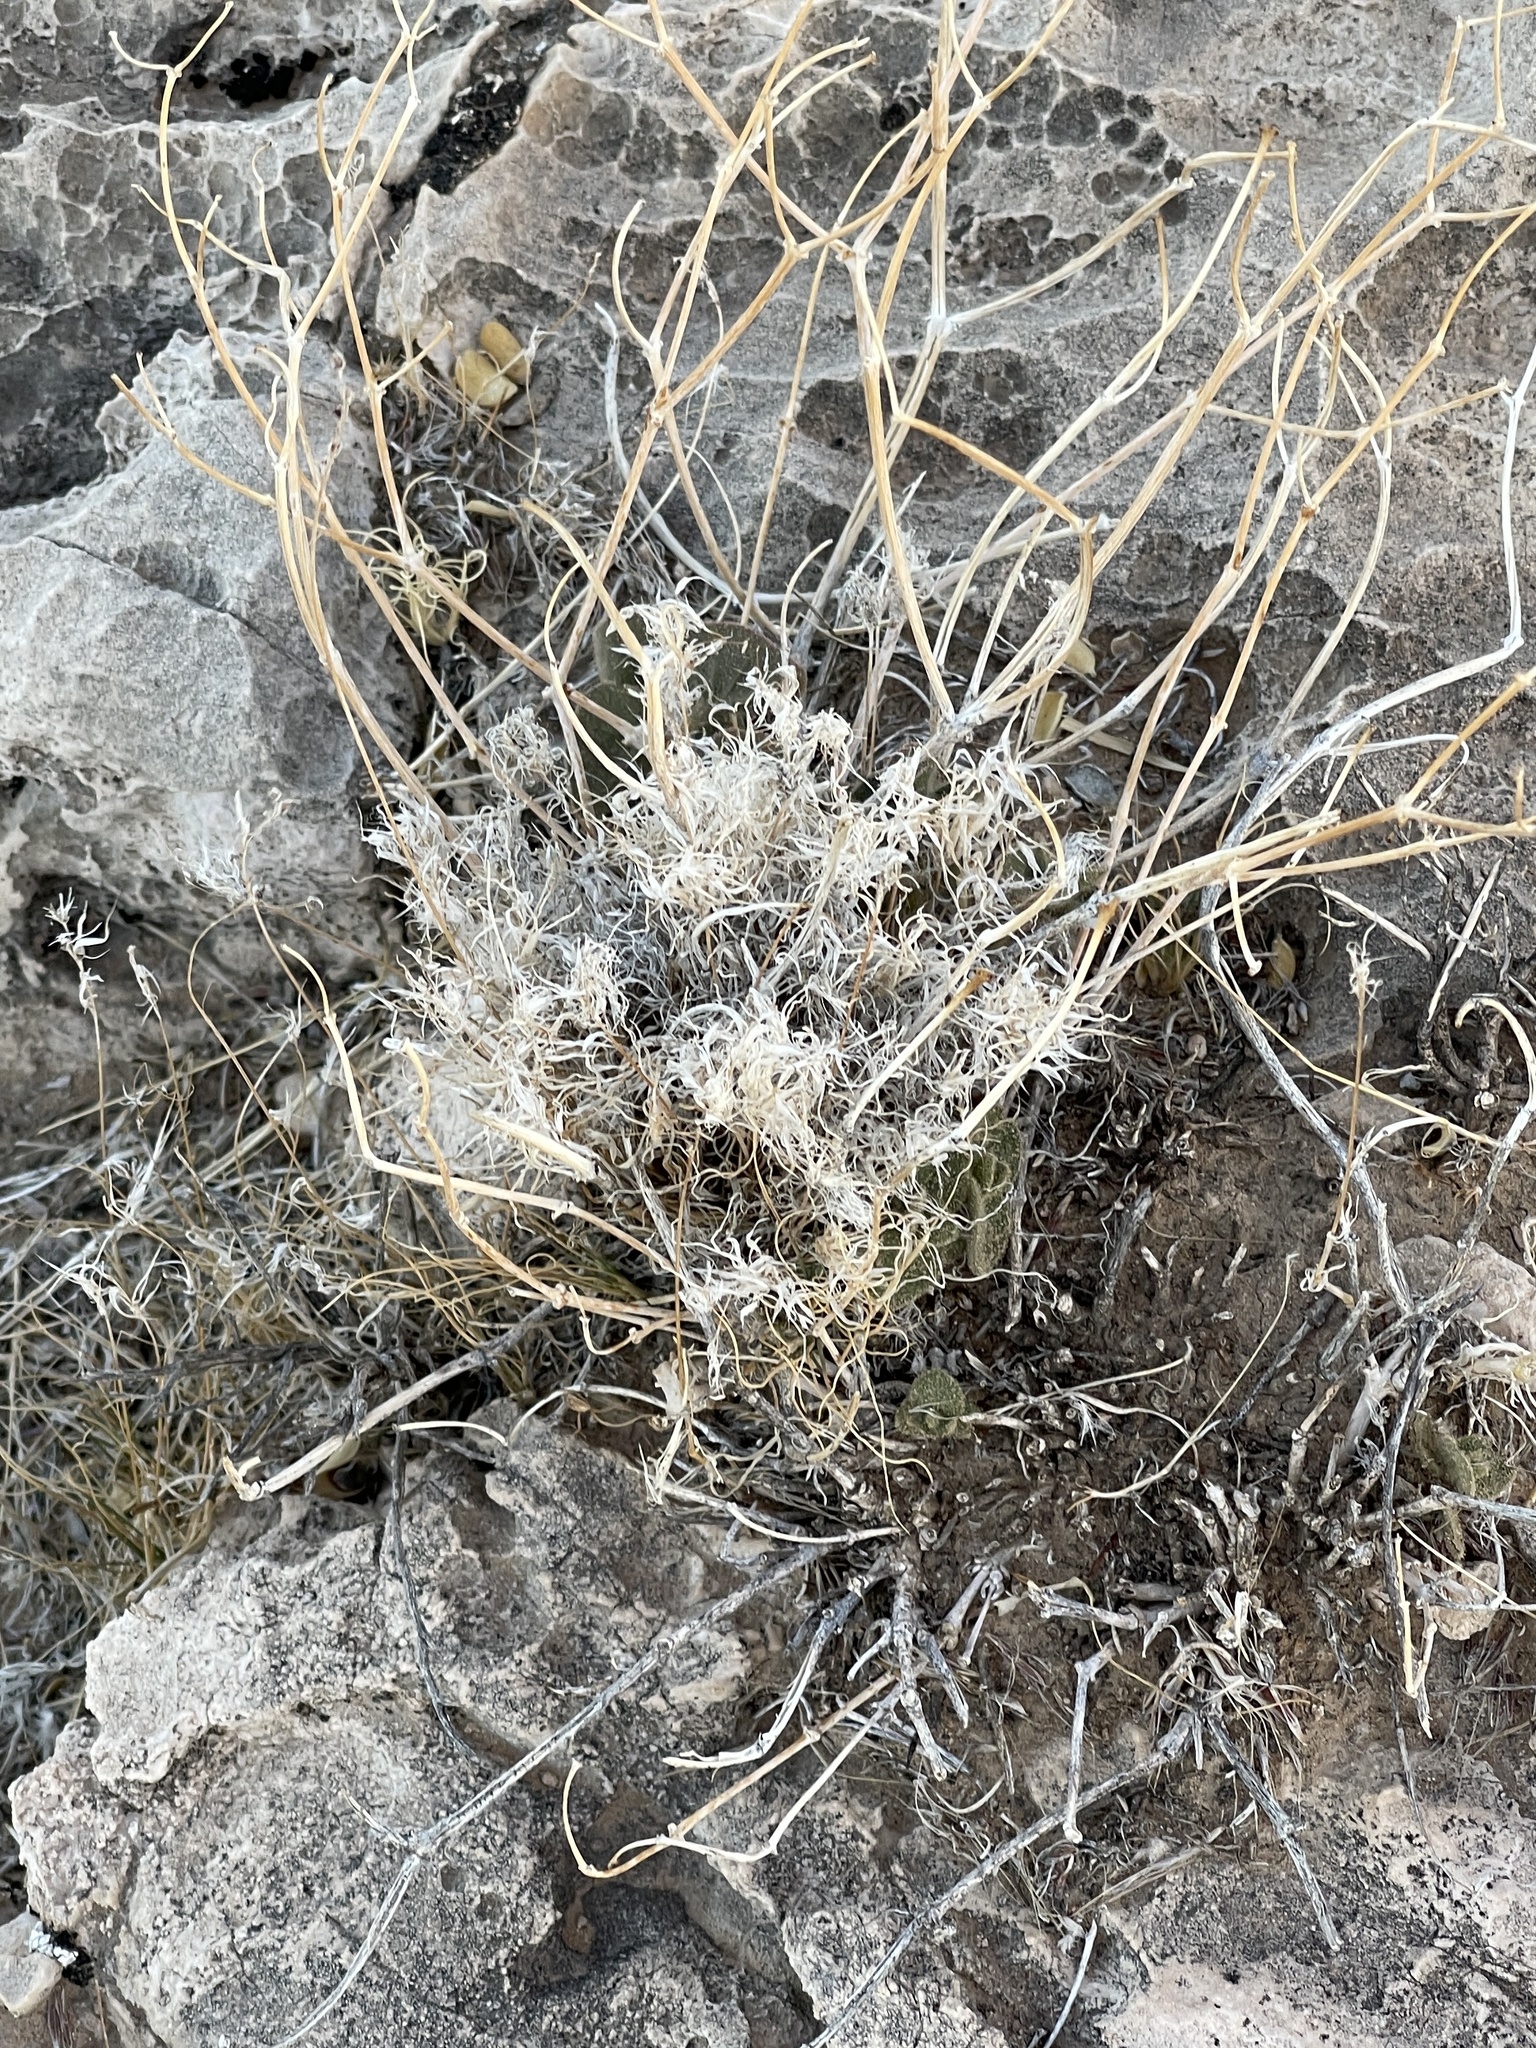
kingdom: Plantae
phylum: Tracheophyta
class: Liliopsida
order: Poales
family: Poaceae
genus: Dasyochloa
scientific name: Dasyochloa pulchella
